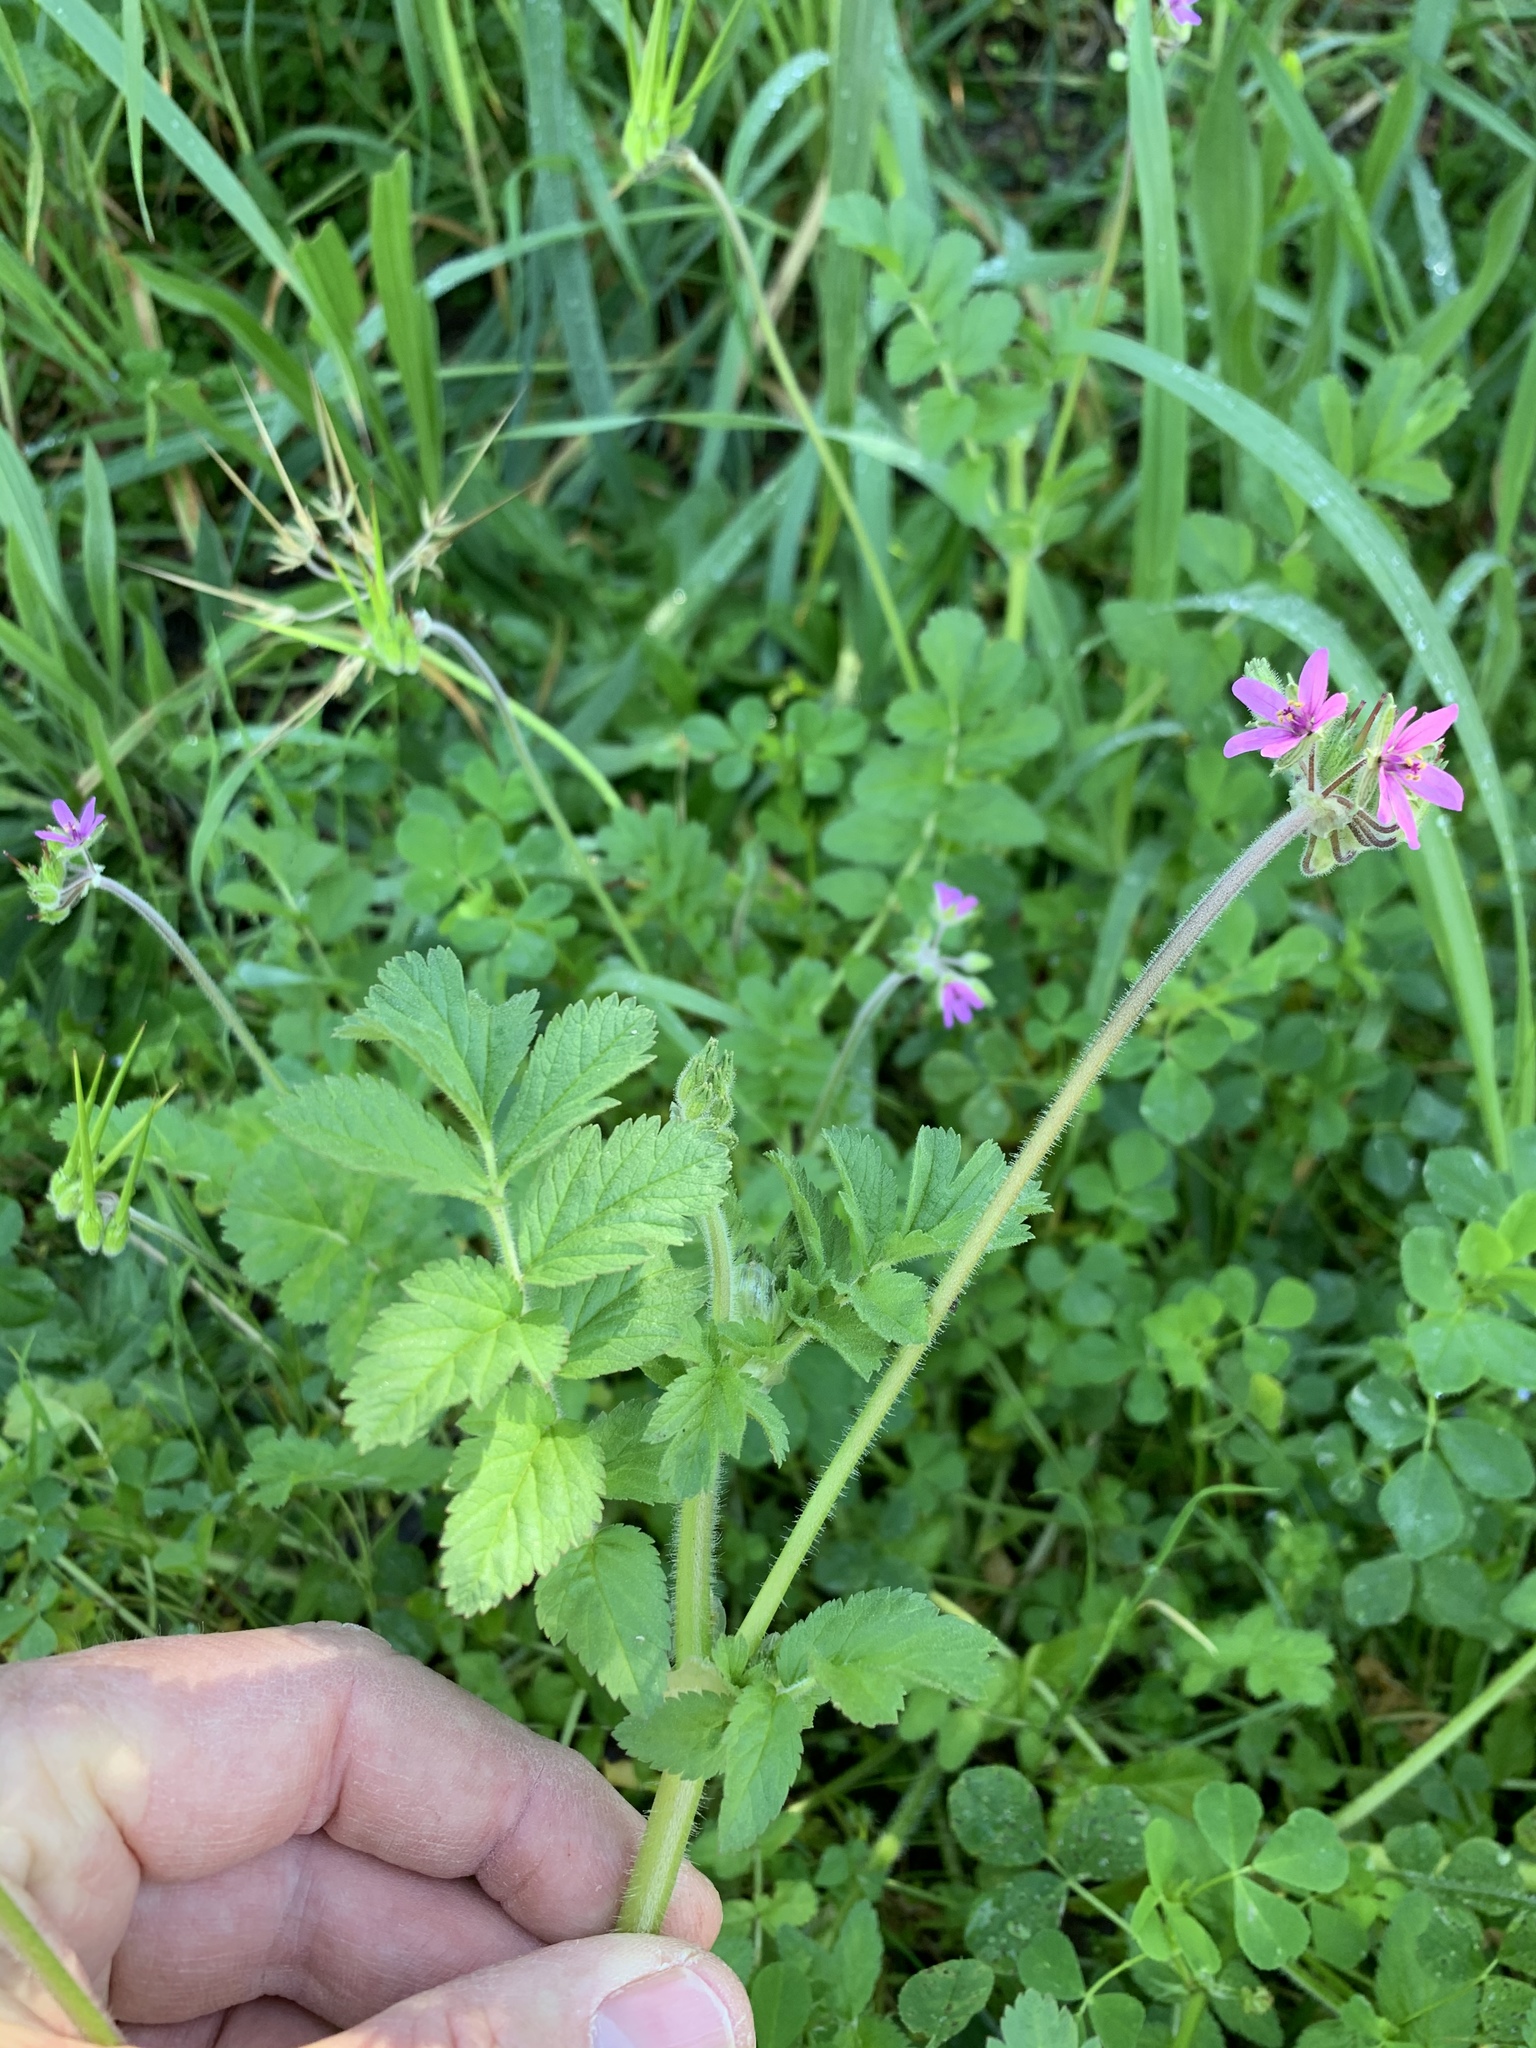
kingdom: Plantae
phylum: Tracheophyta
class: Magnoliopsida
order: Geraniales
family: Geraniaceae
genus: Erodium
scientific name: Erodium moschatum
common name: Musk stork's-bill
